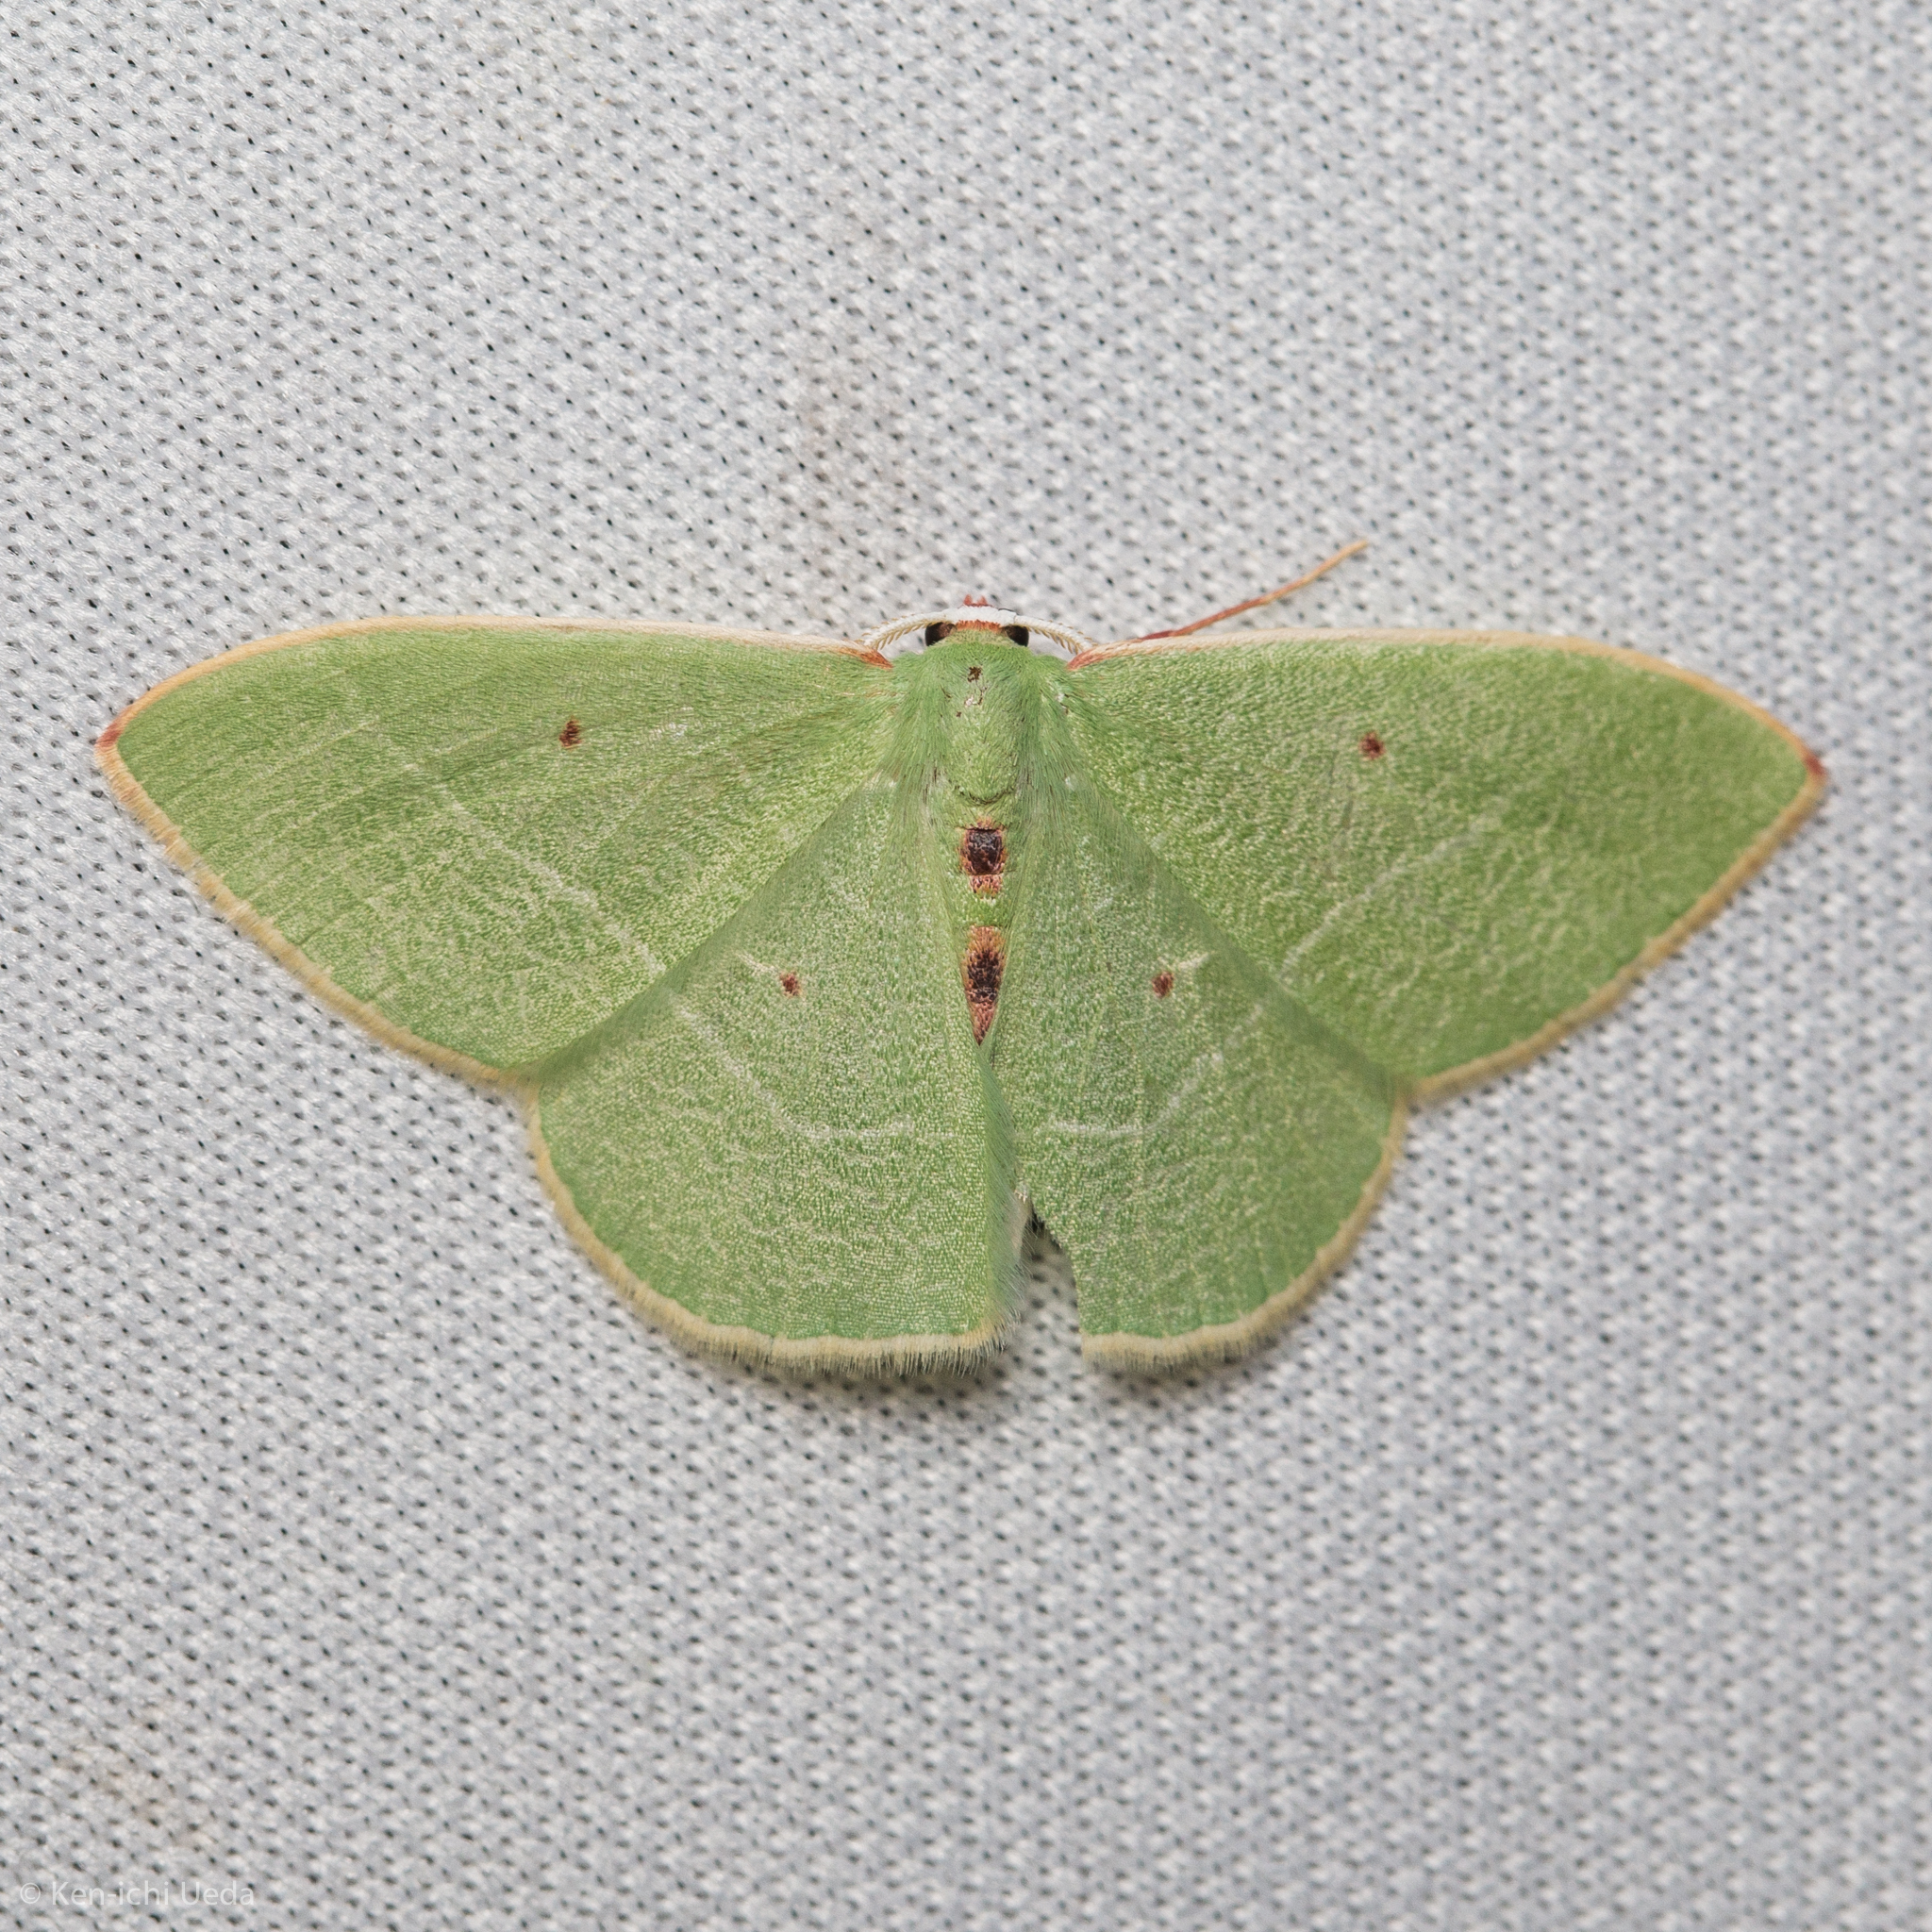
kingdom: Animalia
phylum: Arthropoda
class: Insecta
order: Lepidoptera
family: Geometridae
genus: Nemoria
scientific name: Nemoria darwiniata
